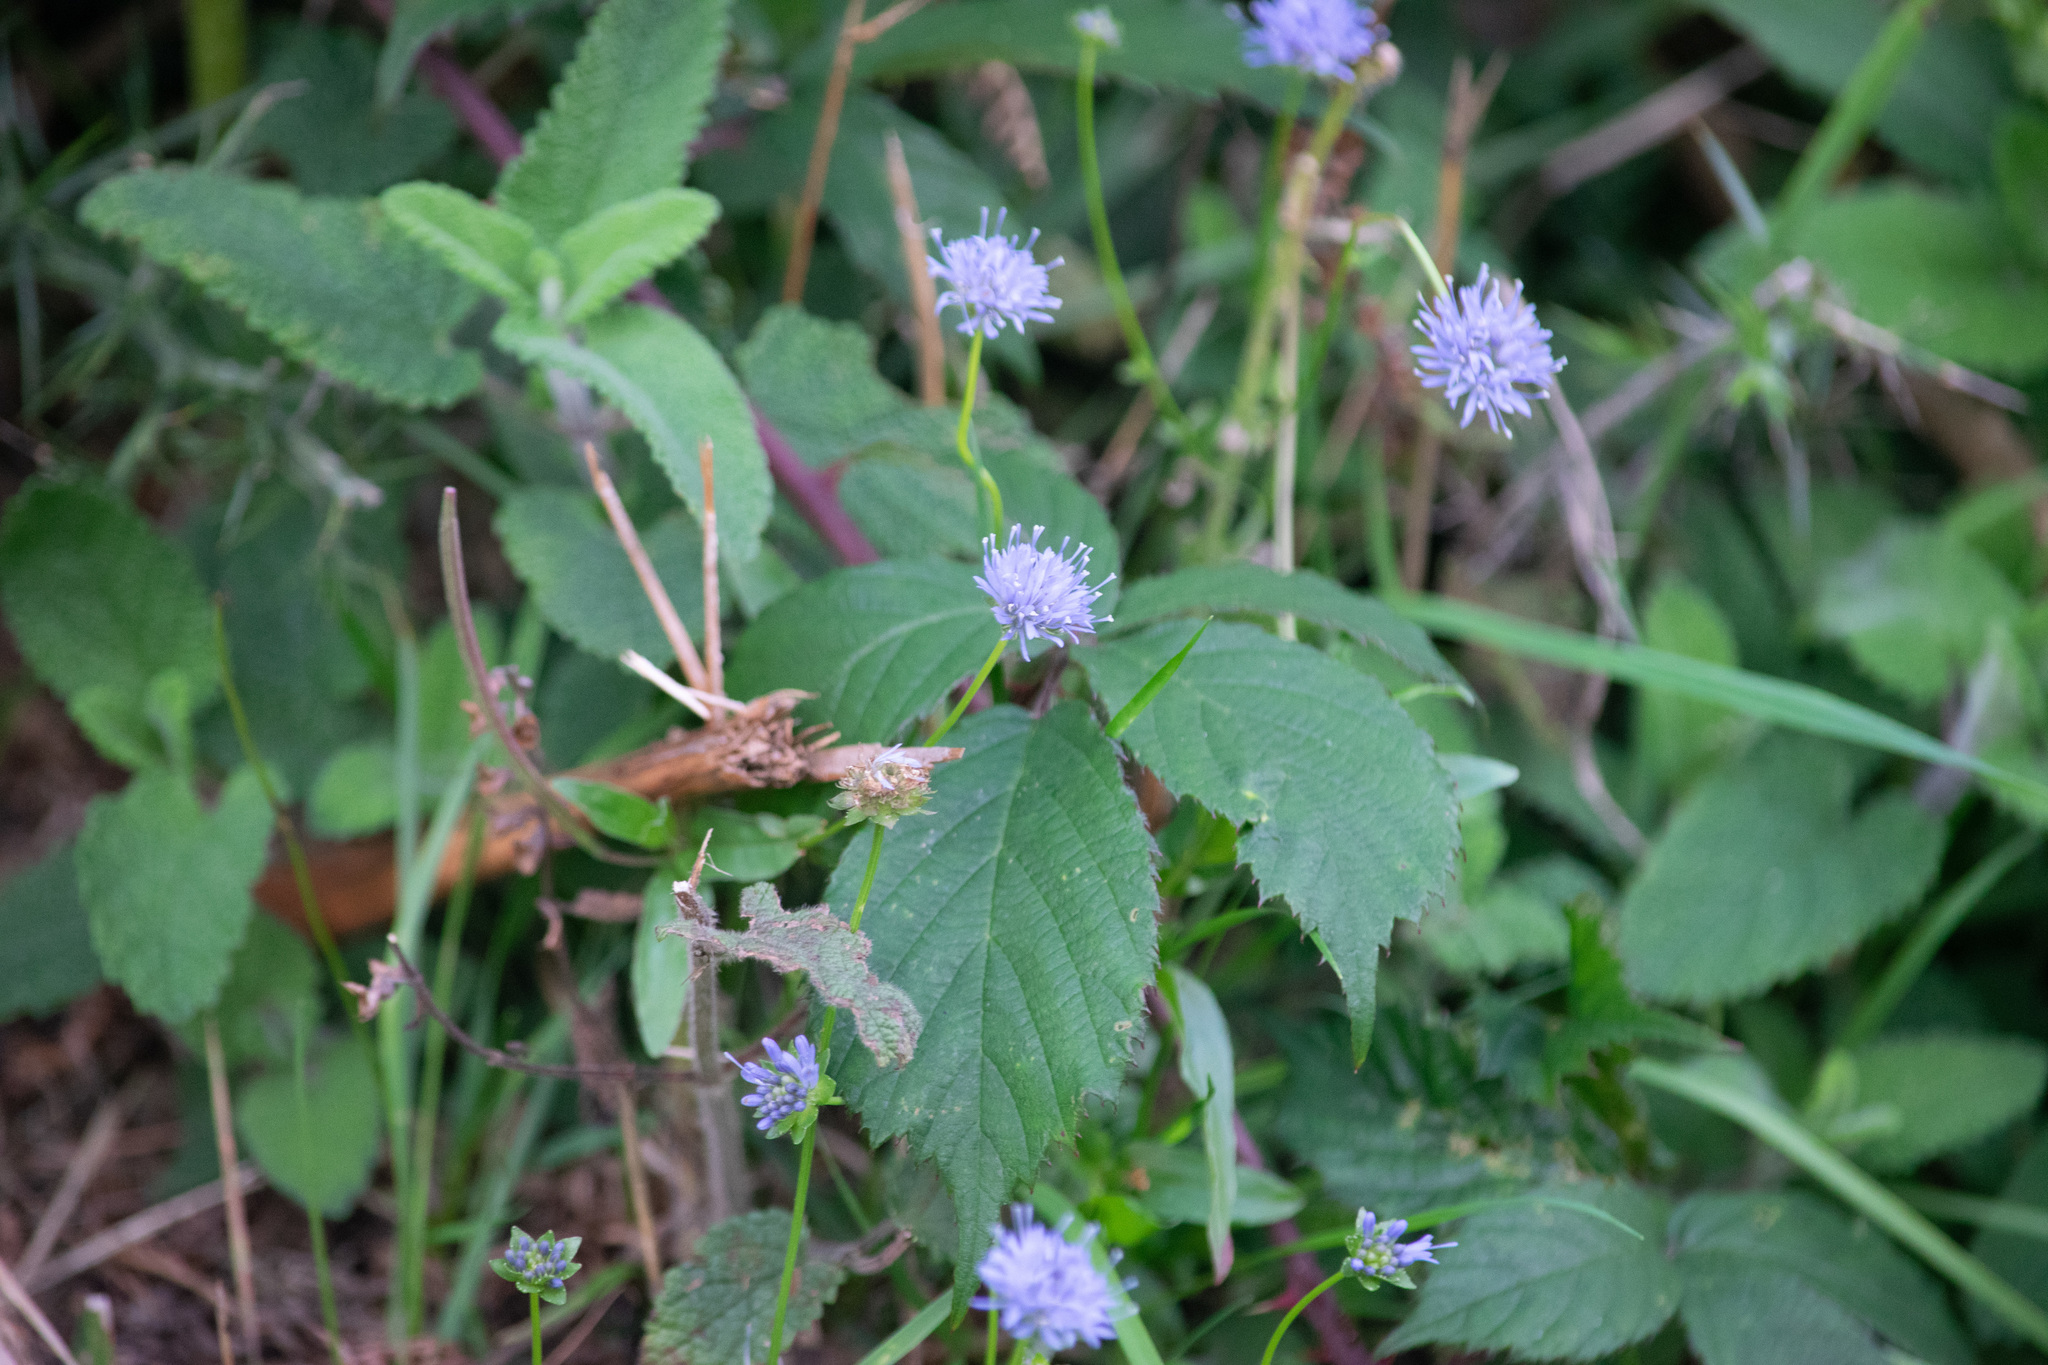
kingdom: Plantae
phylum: Tracheophyta
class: Magnoliopsida
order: Dipsacales
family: Caprifoliaceae
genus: Succisa
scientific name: Succisa pratensis
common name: Devil's-bit
